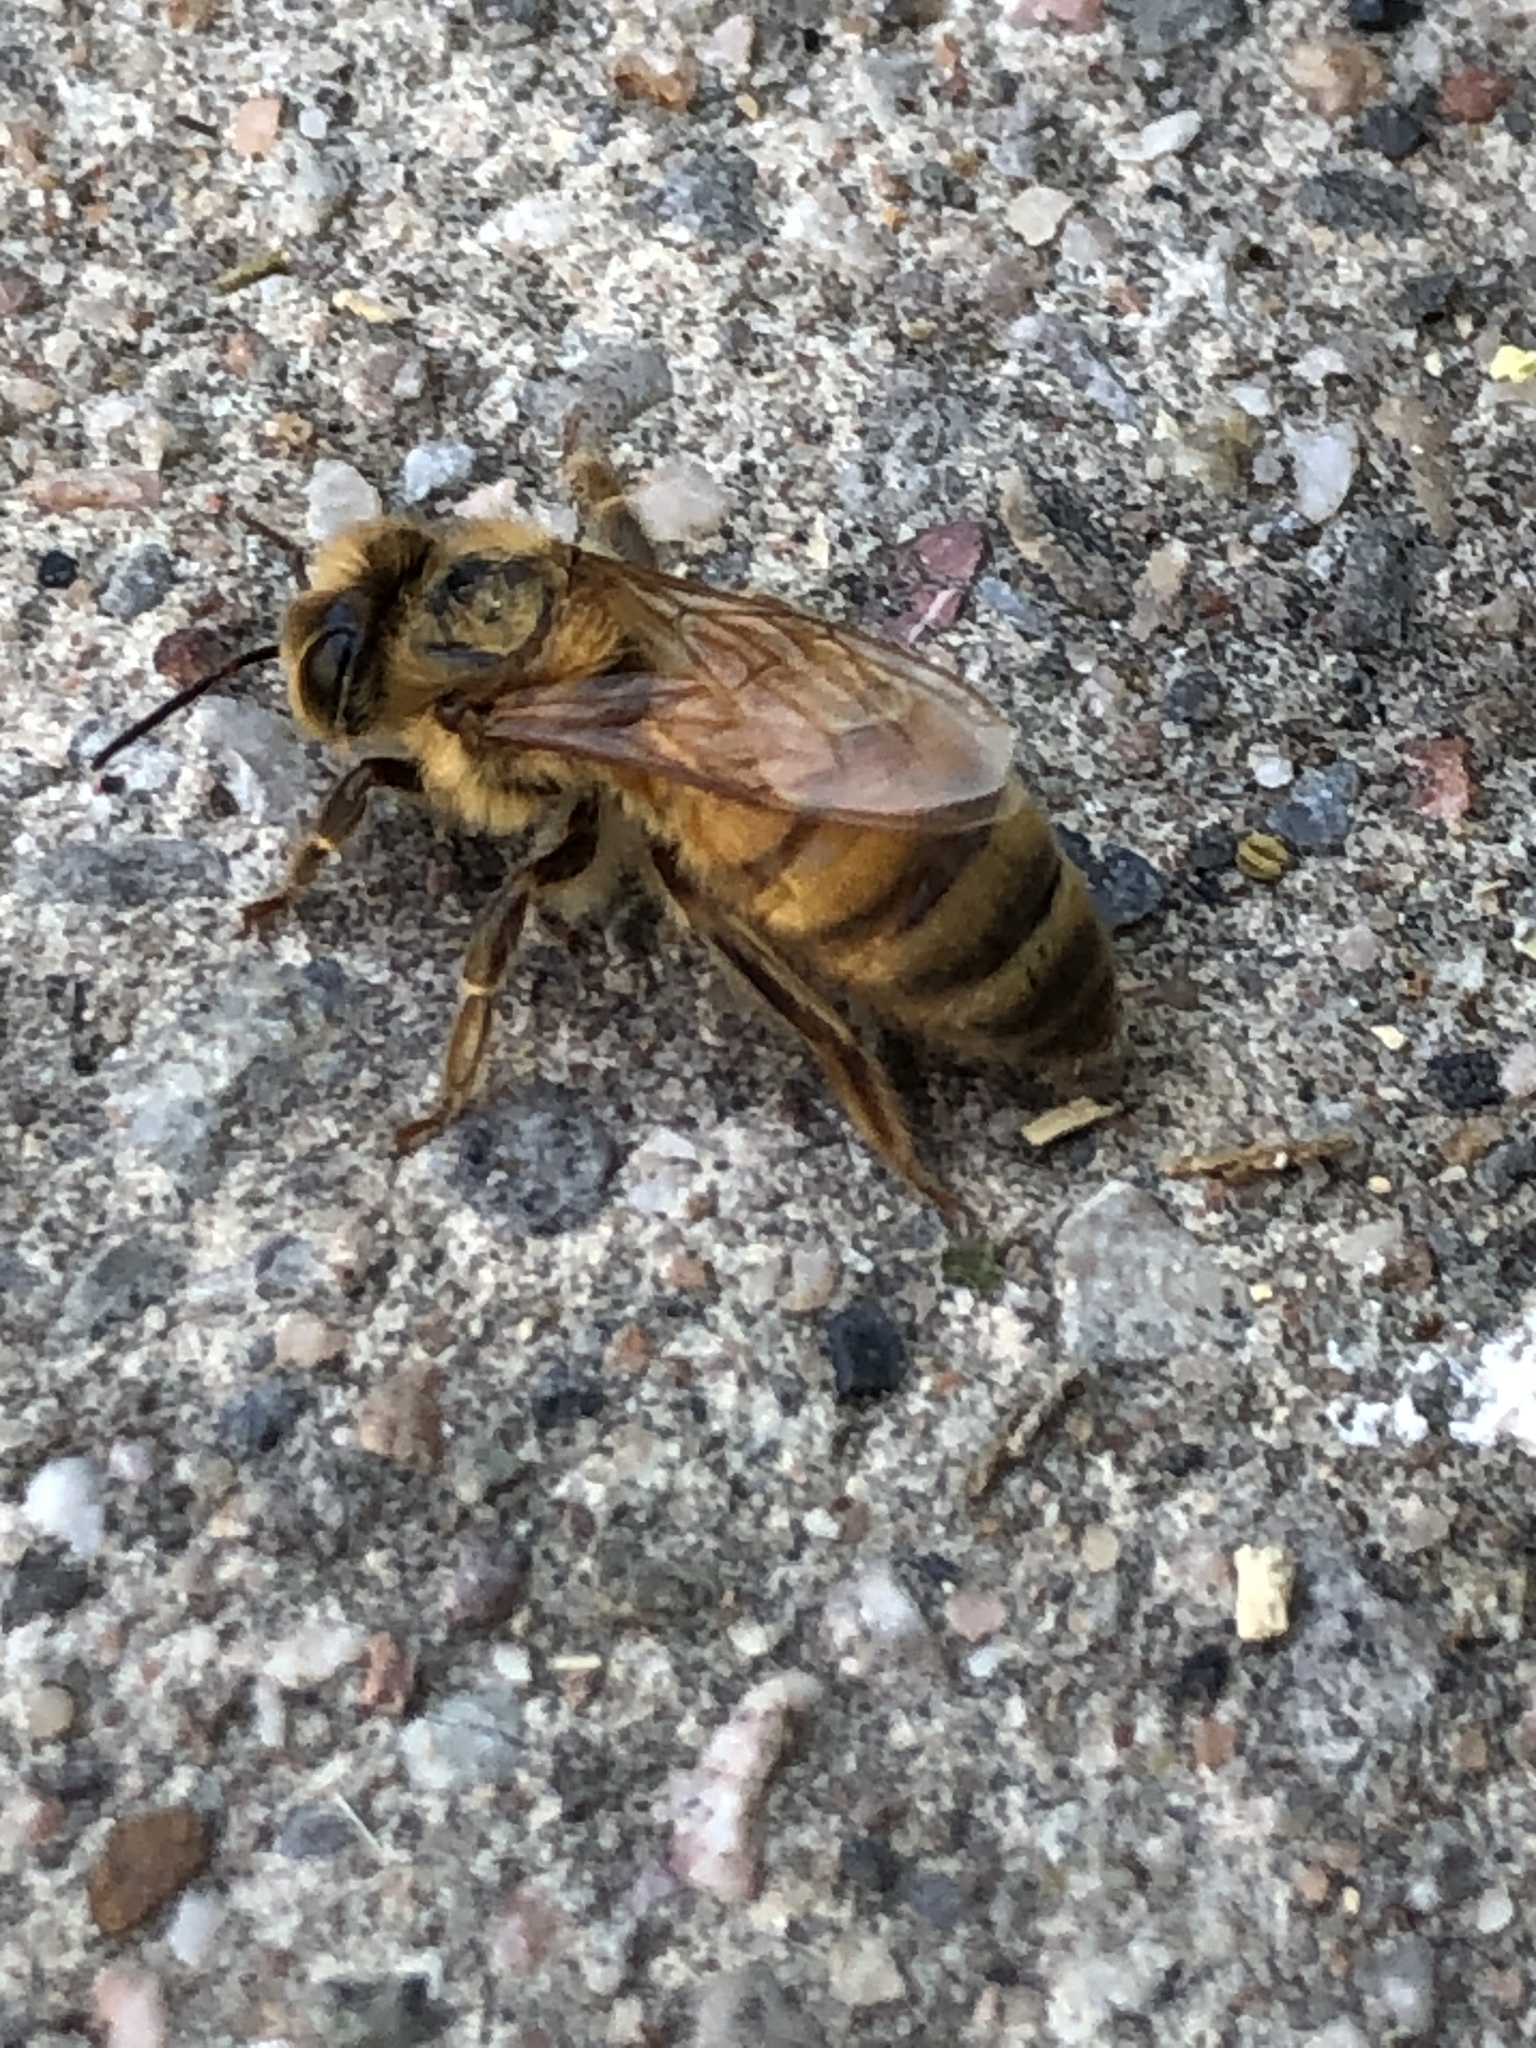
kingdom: Animalia
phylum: Arthropoda
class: Insecta
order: Hymenoptera
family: Apidae
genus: Apis
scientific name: Apis mellifera
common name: Honey bee
